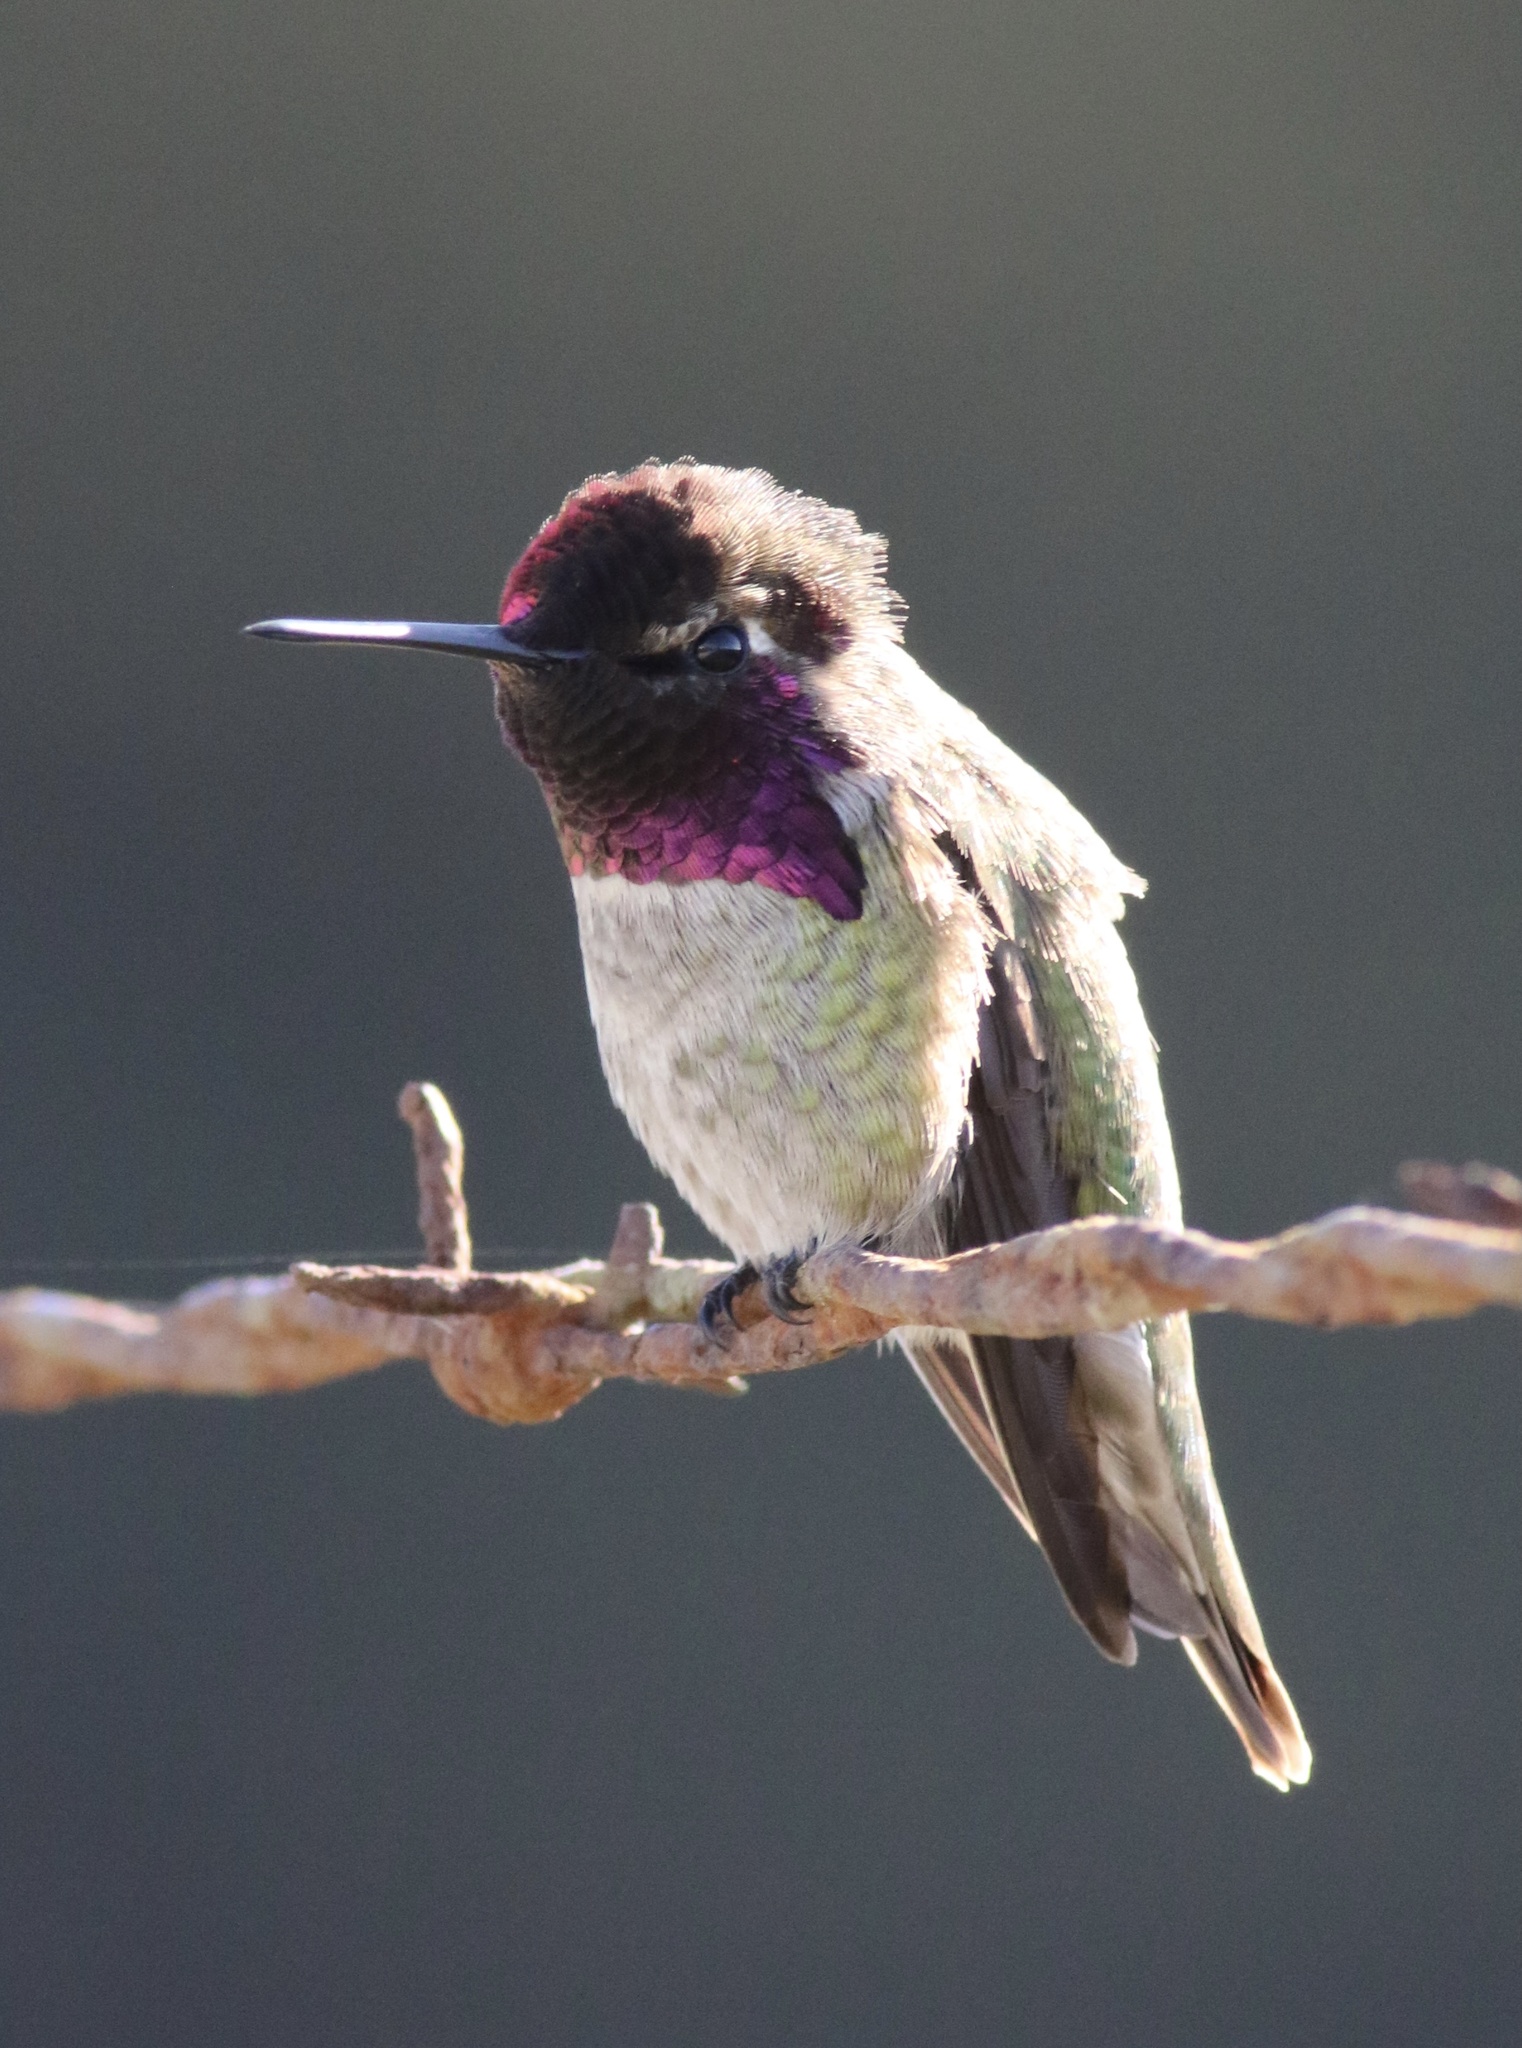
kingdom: Animalia
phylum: Chordata
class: Aves
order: Apodiformes
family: Trochilidae
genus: Calypte
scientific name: Calypte anna
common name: Anna's hummingbird
